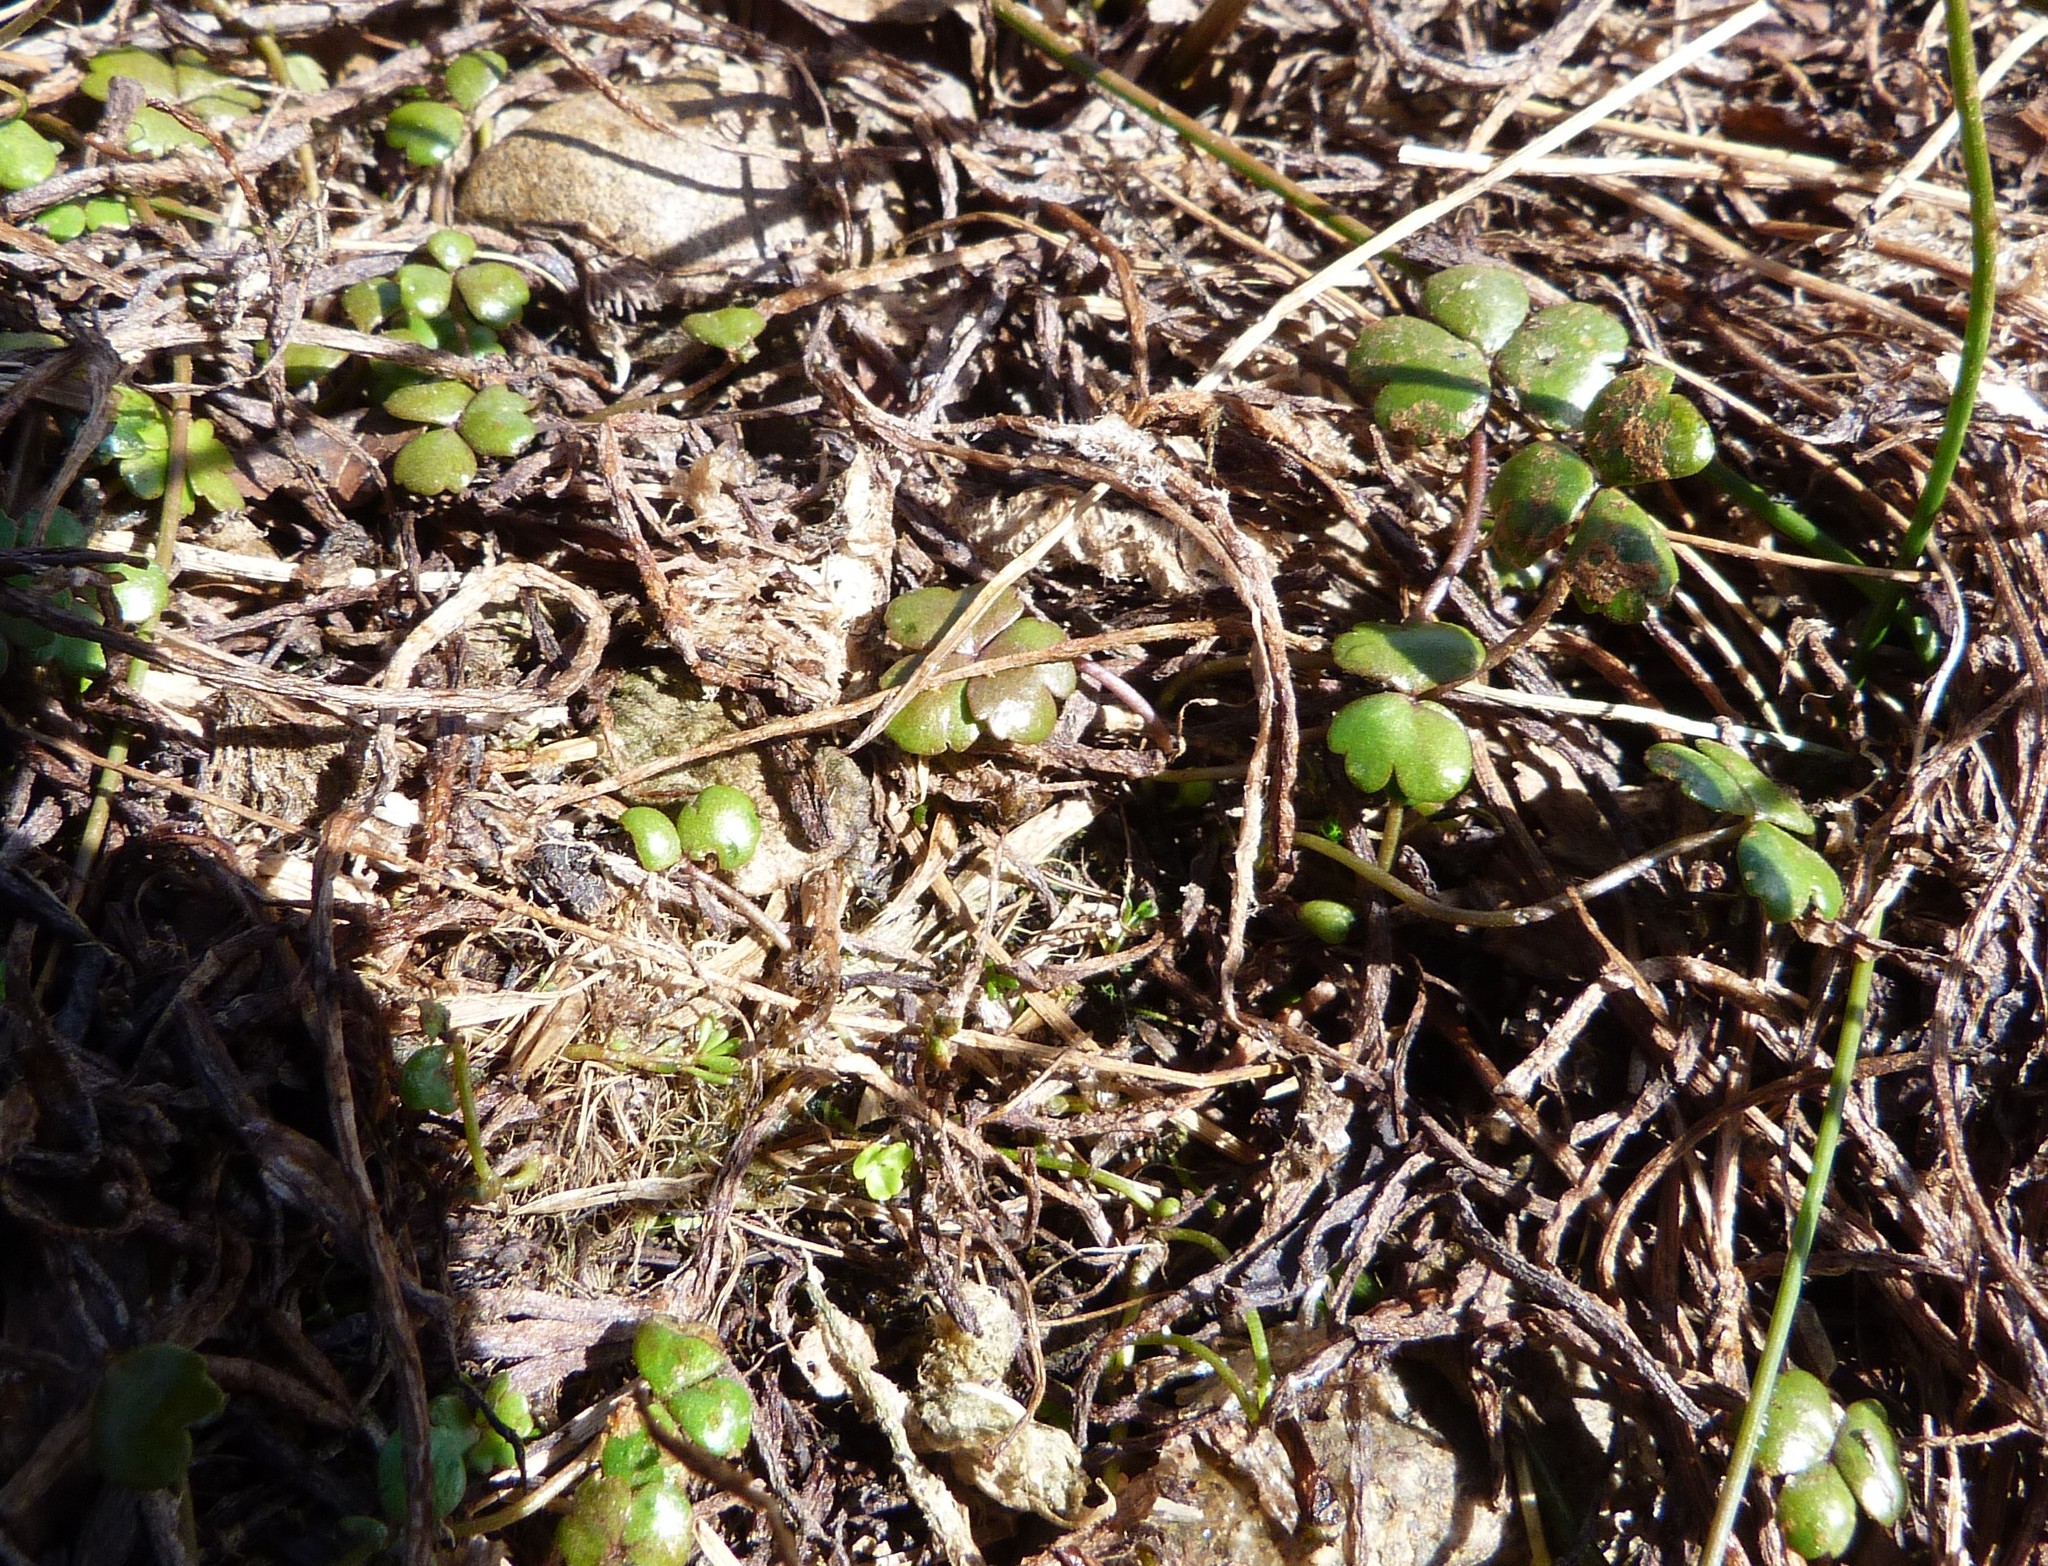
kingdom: Plantae
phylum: Tracheophyta
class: Magnoliopsida
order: Apiales
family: Araliaceae
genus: Hydrocotyle
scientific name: Hydrocotyle sulcata
